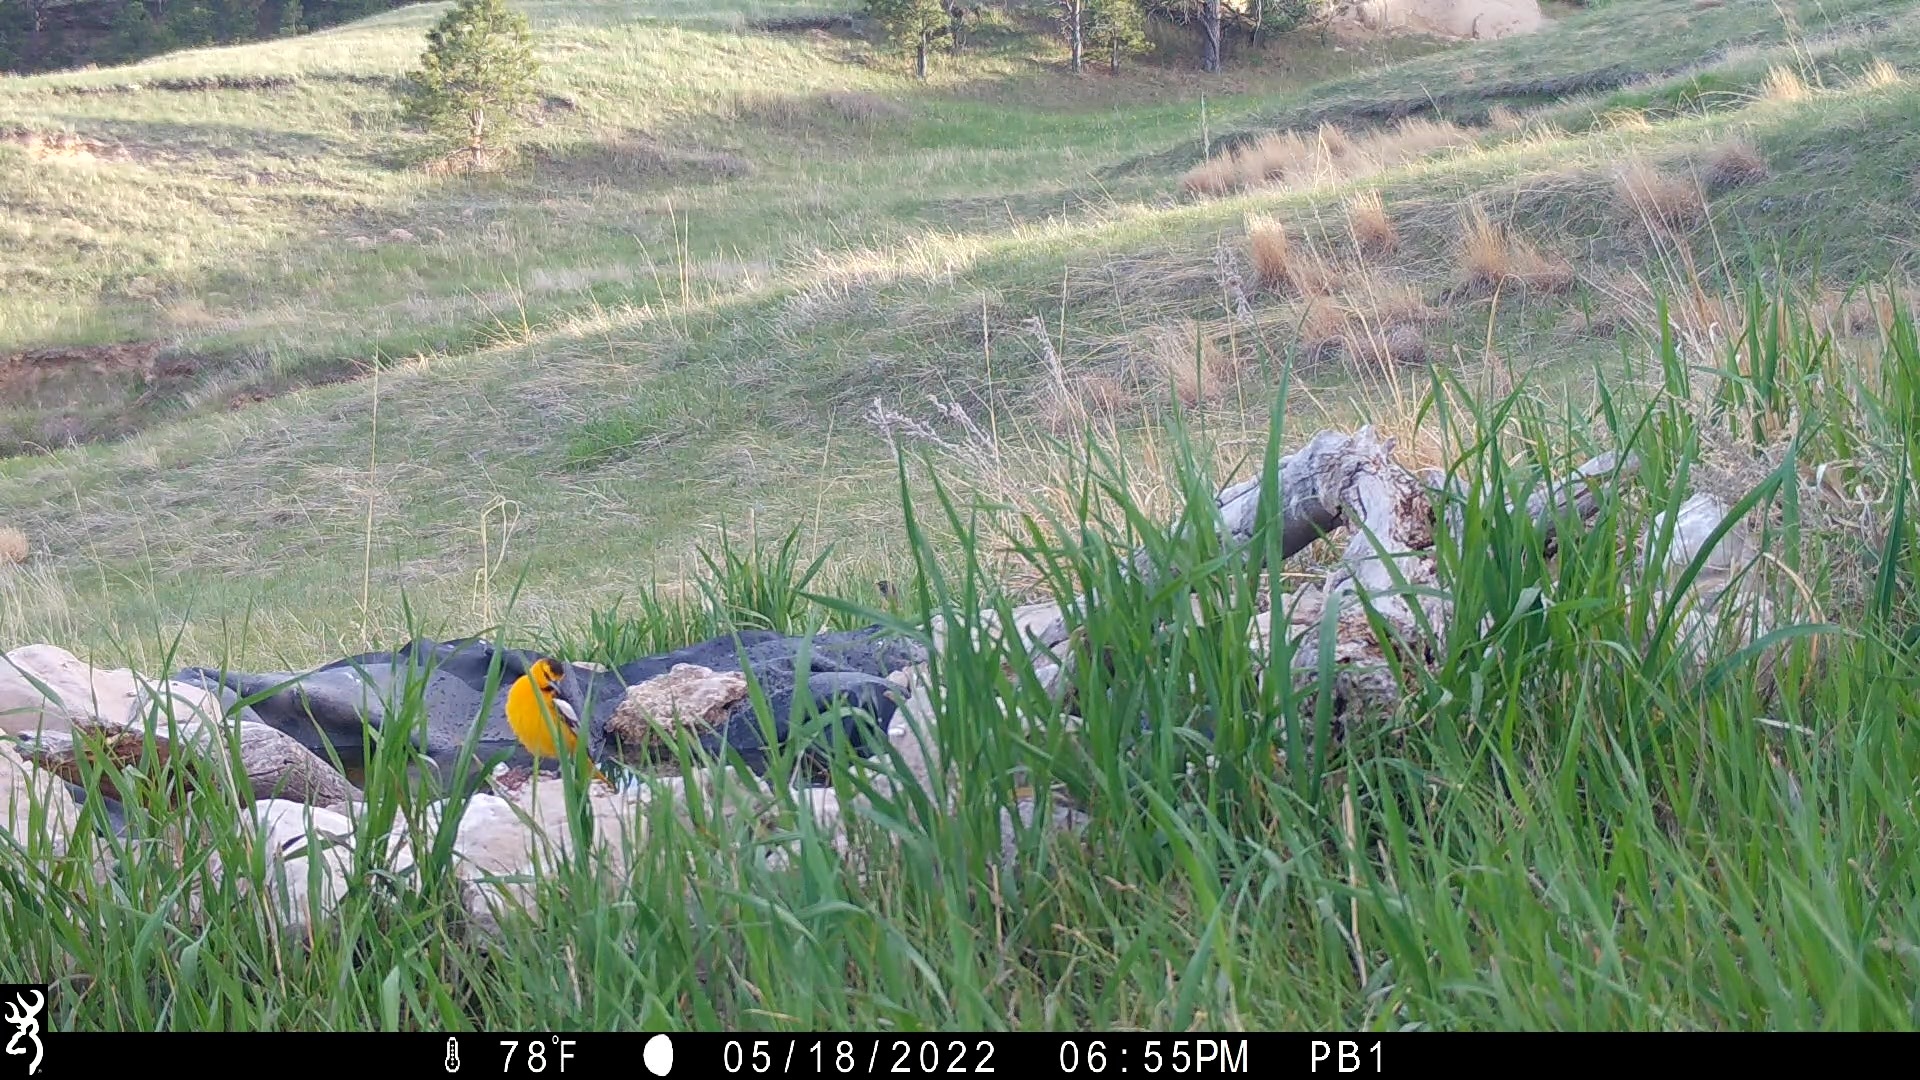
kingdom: Animalia
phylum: Chordata
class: Aves
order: Passeriformes
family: Icteridae
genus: Icterus
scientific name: Icterus bullockii
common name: Bullock's oriole
